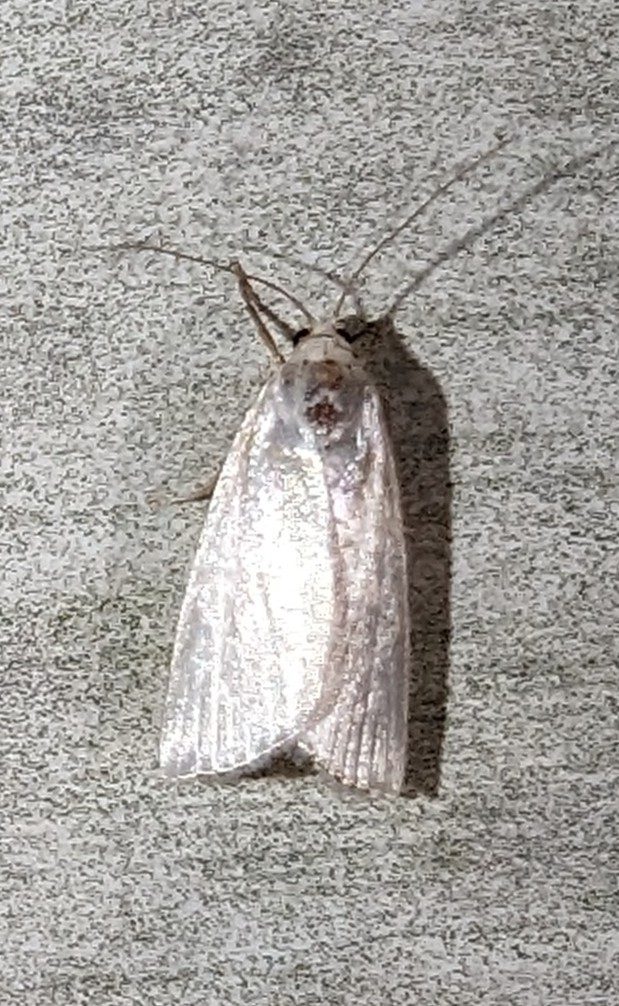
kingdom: Animalia
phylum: Arthropoda
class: Insecta
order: Lepidoptera
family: Crambidae
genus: Argyria
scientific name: Argyria nivalis
